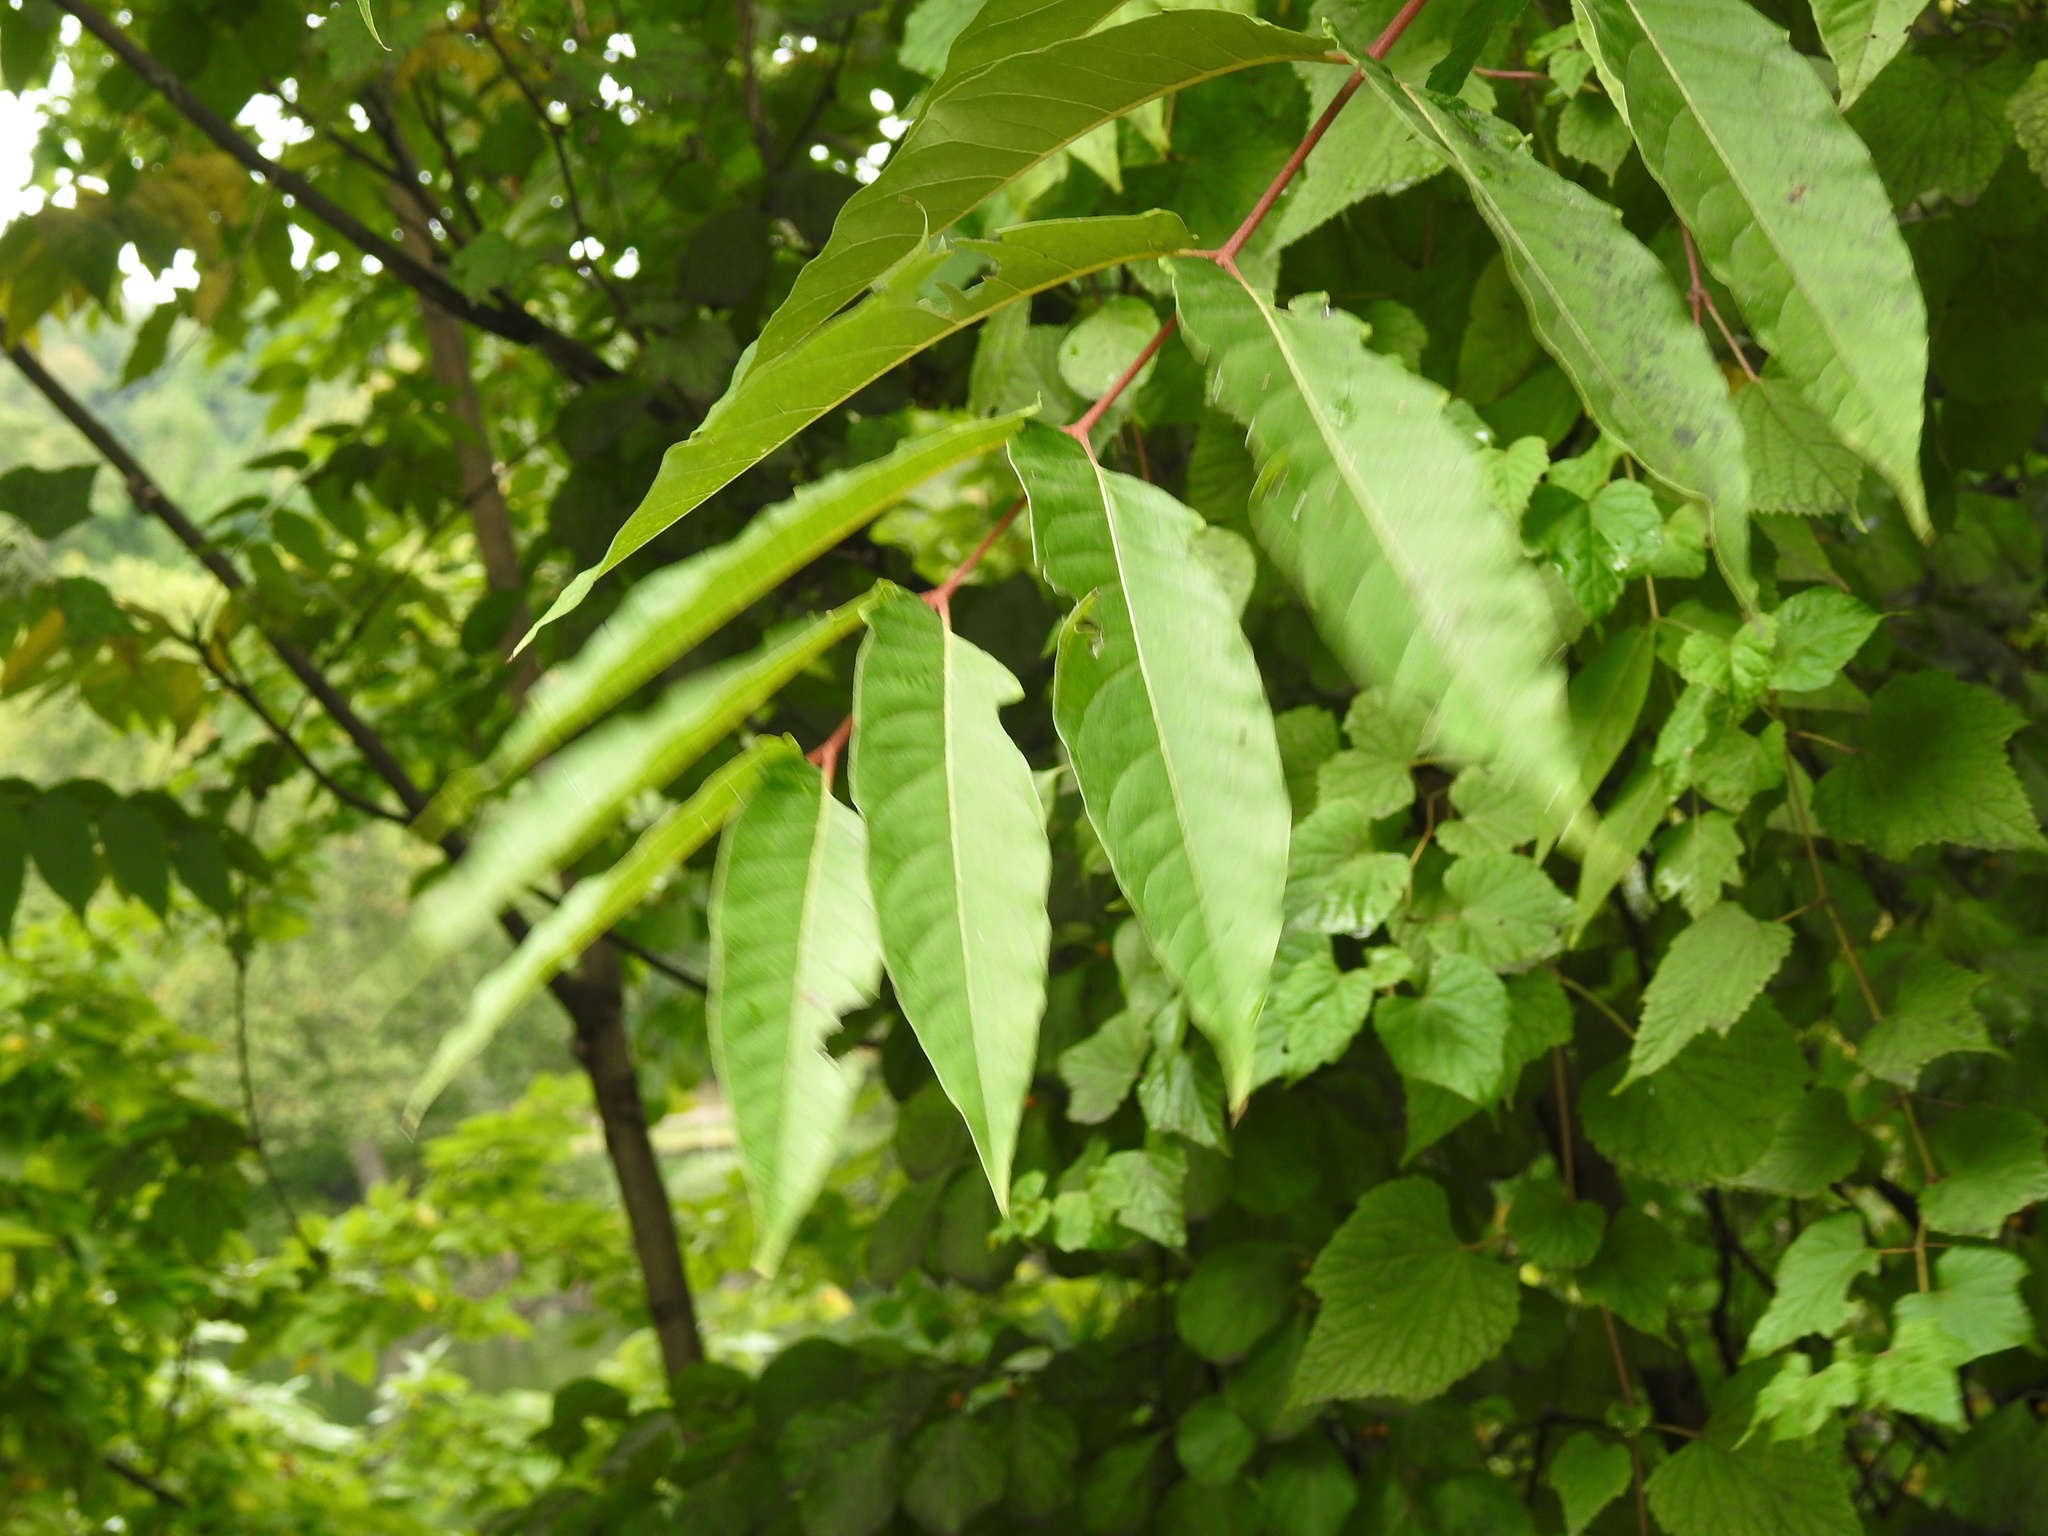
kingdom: Plantae
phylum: Tracheophyta
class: Magnoliopsida
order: Sapindales
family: Simaroubaceae
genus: Ailanthus
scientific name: Ailanthus altissima
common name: Tree-of-heaven
